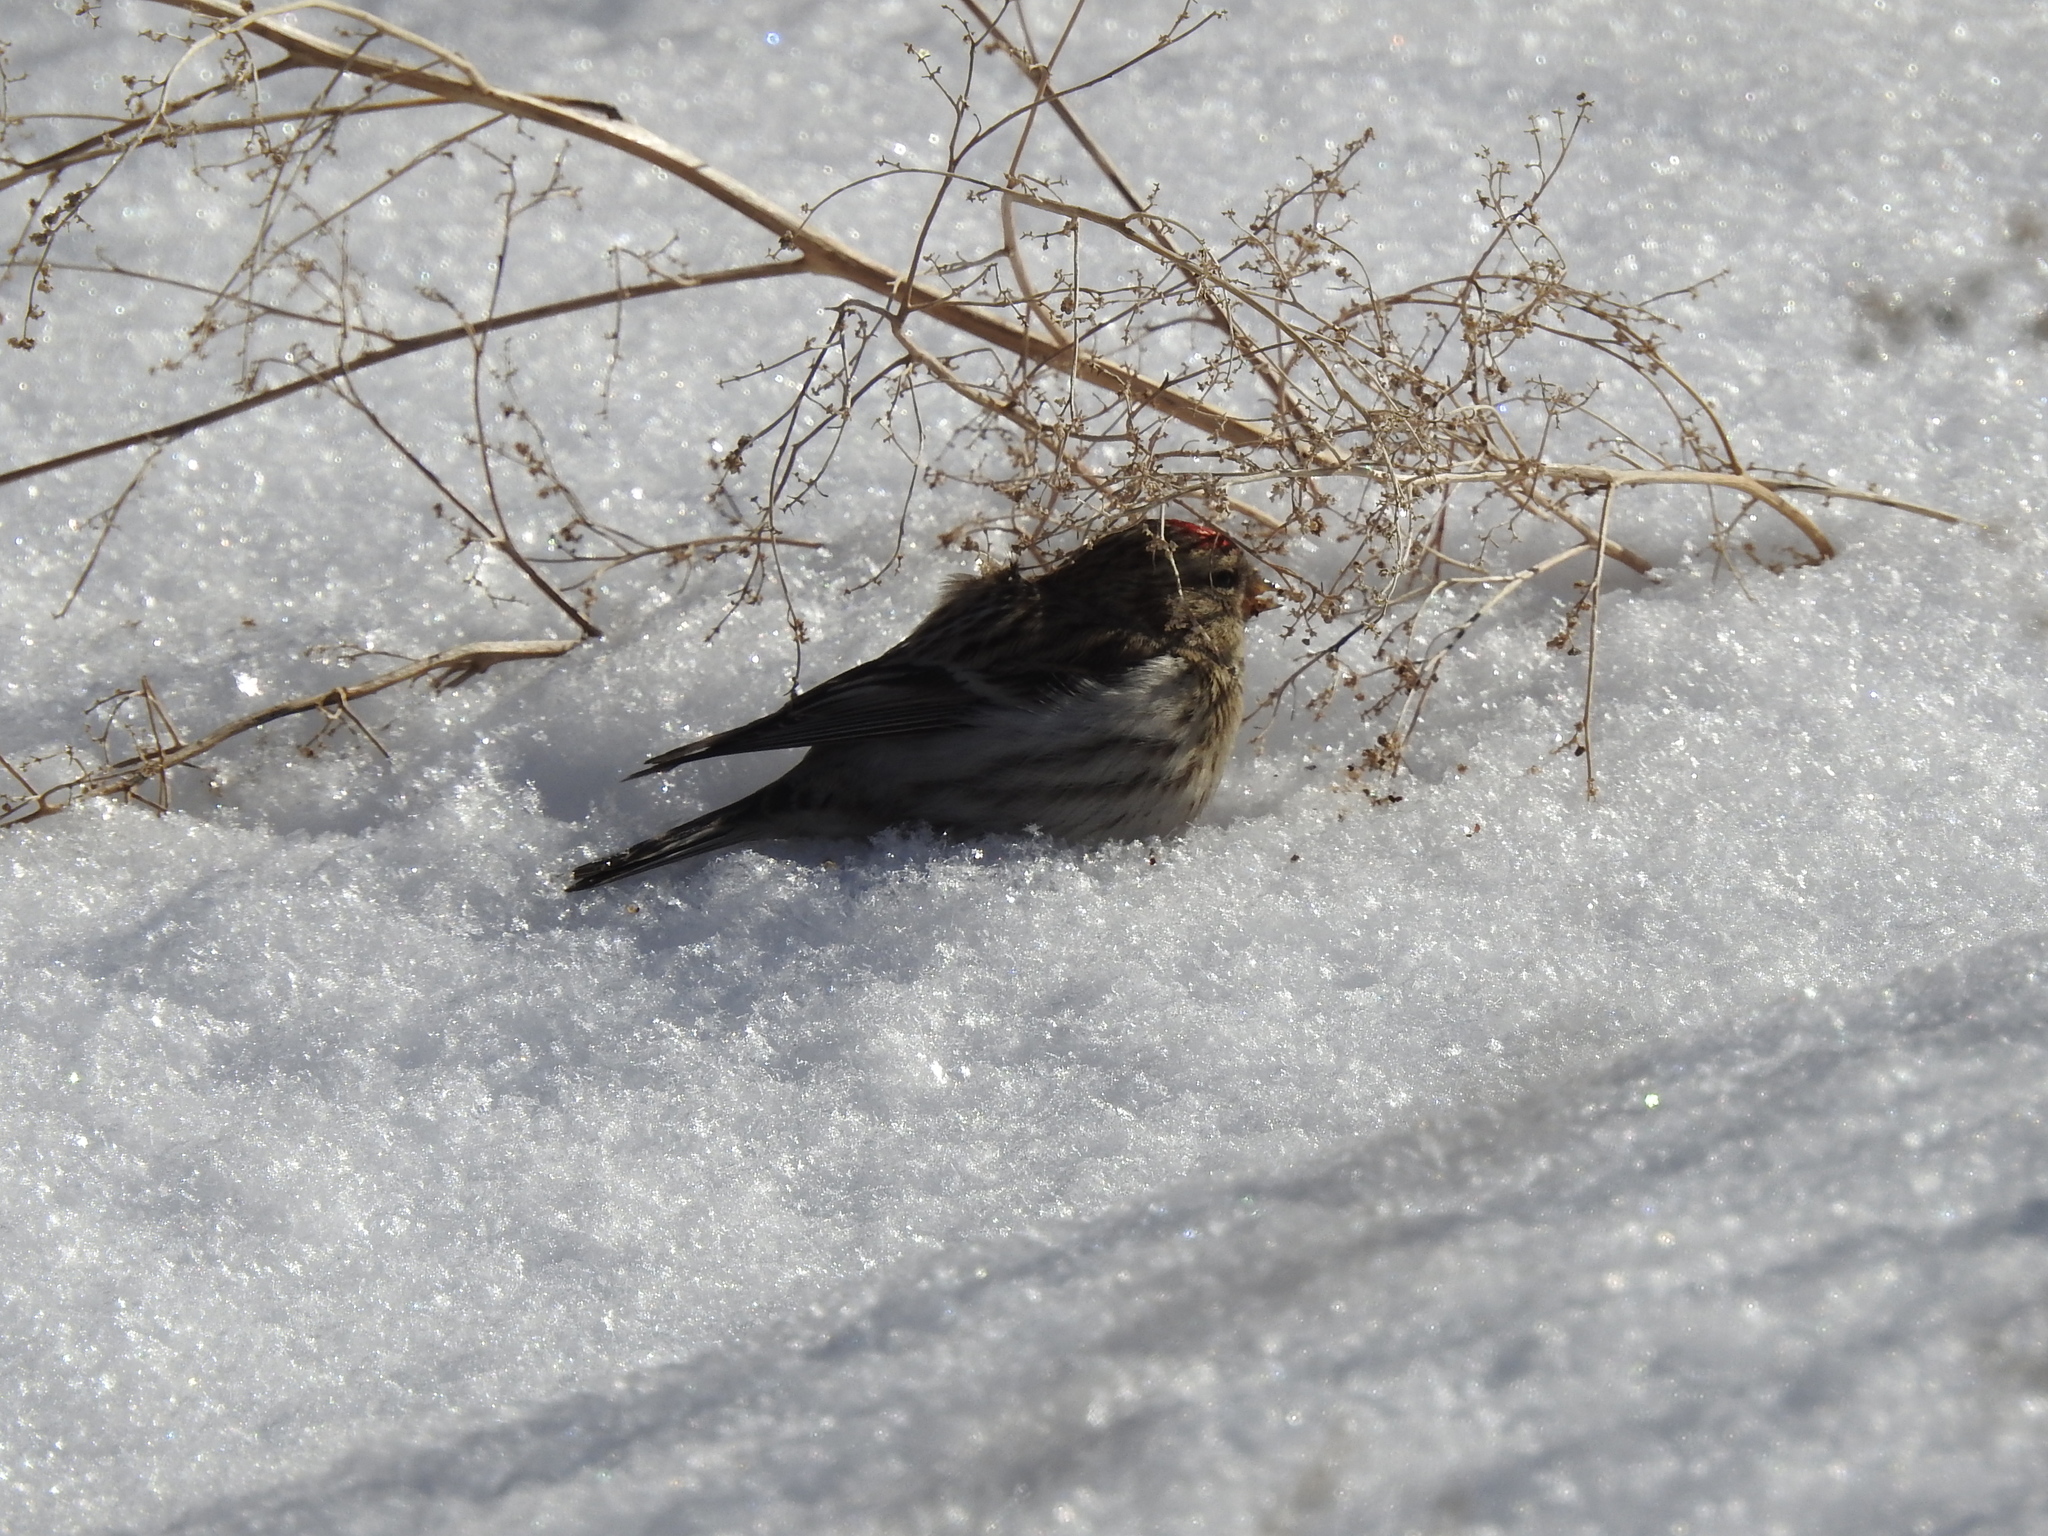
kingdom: Animalia
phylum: Chordata
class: Aves
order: Passeriformes
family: Fringillidae
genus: Acanthis
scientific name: Acanthis flammea
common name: Common redpoll
